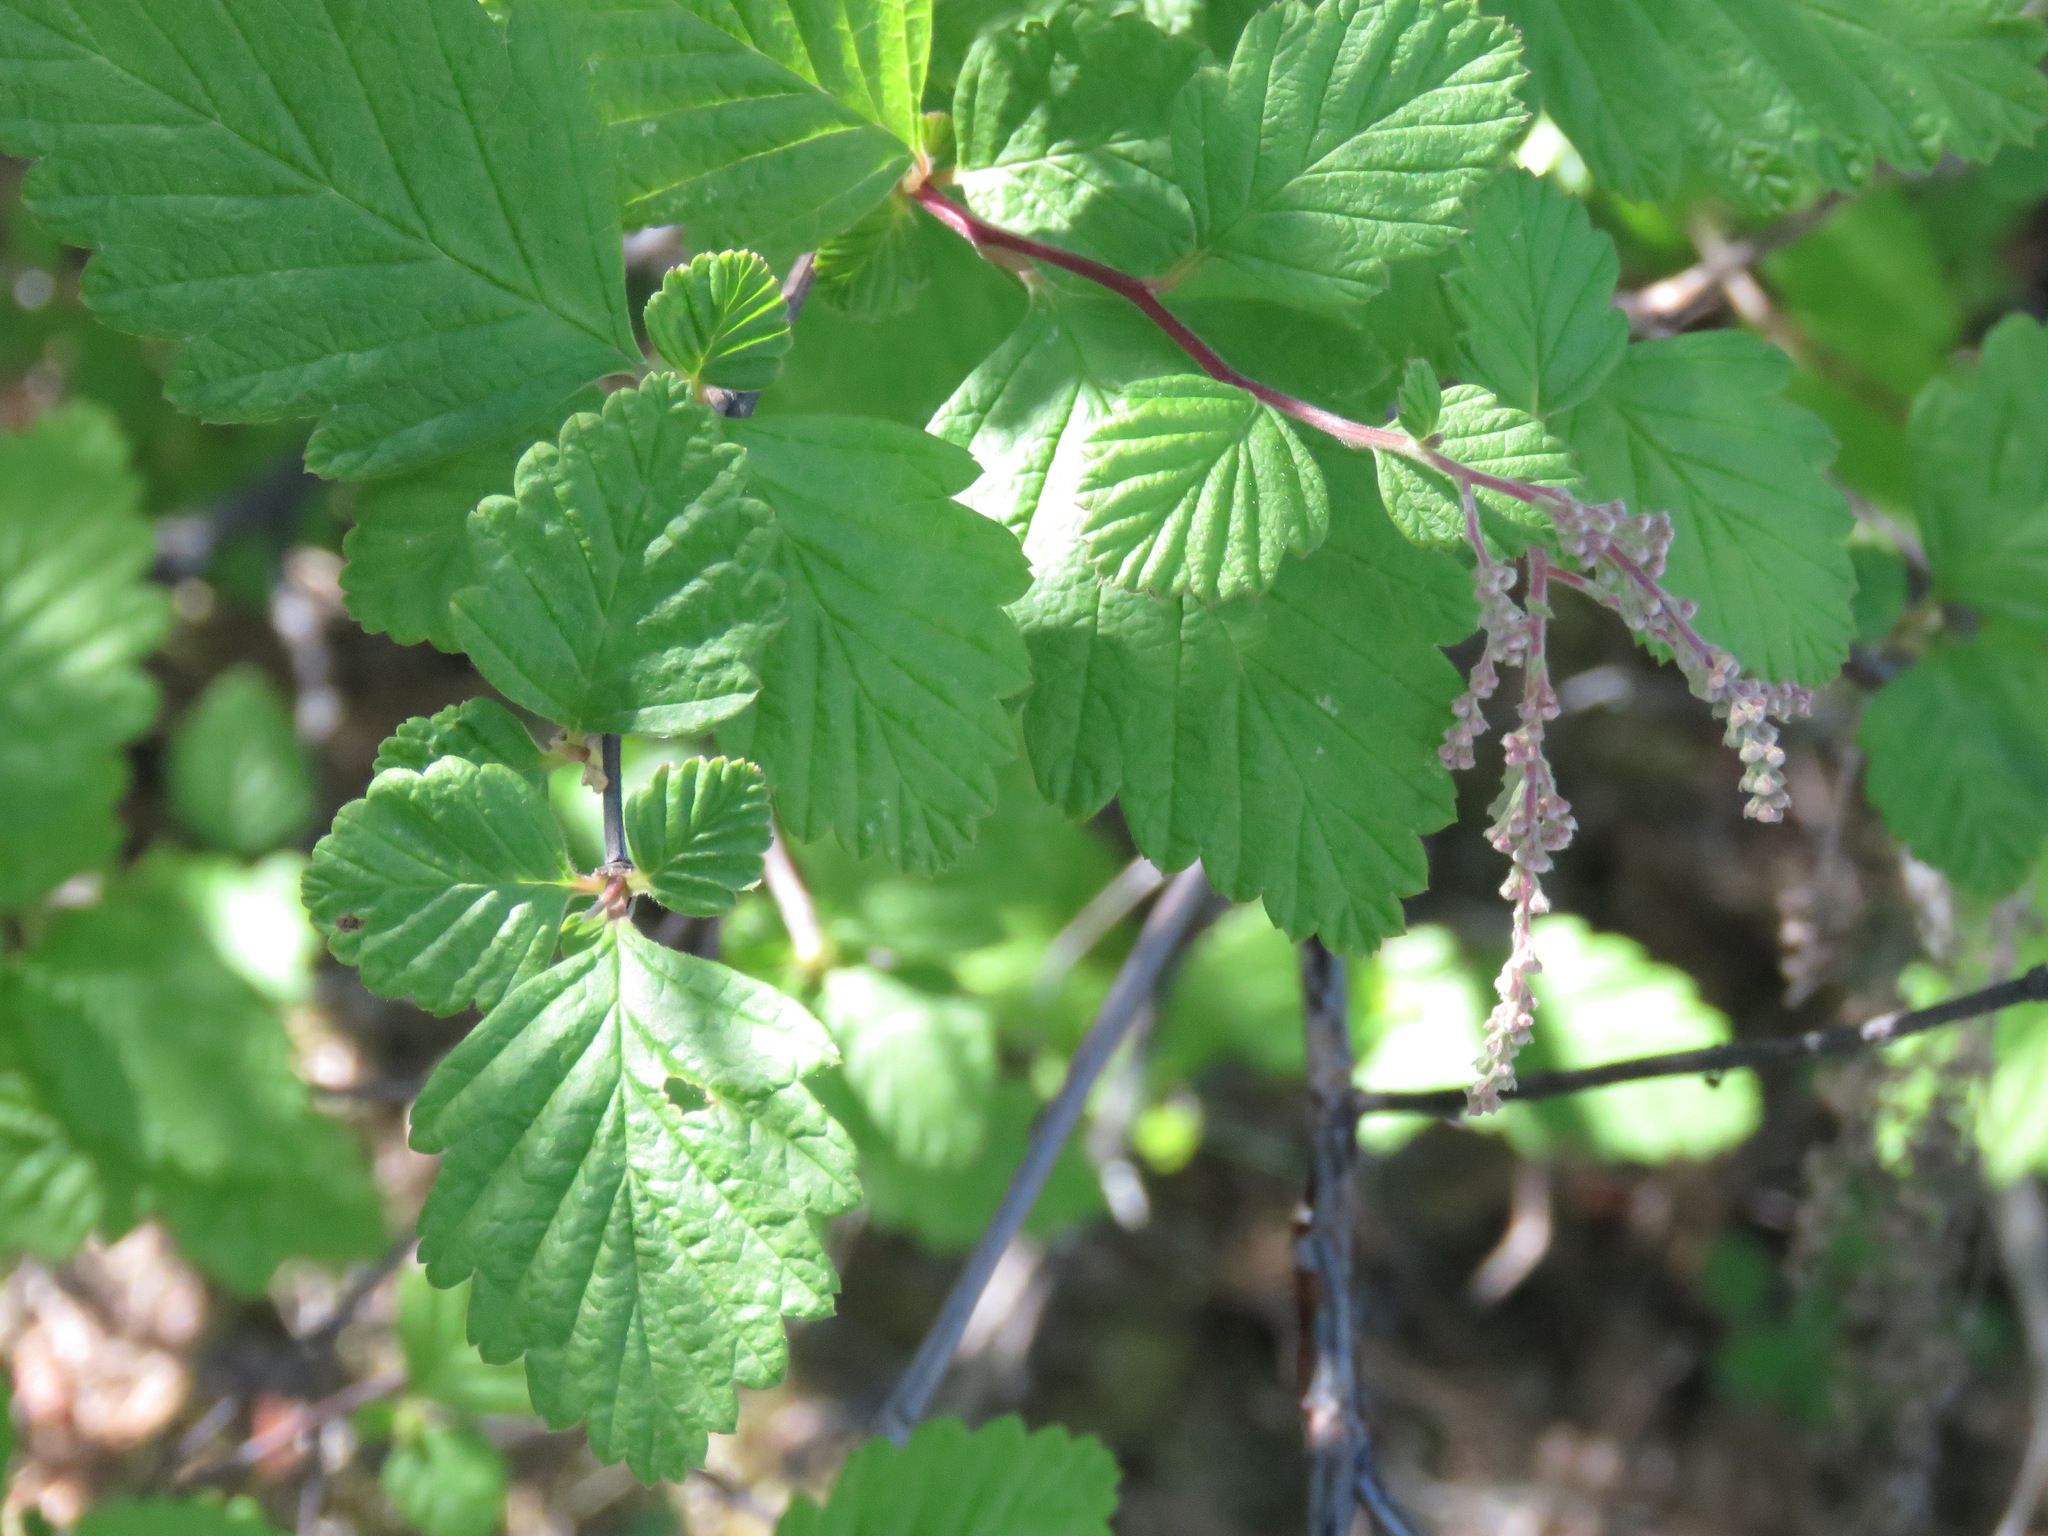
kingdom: Plantae
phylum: Tracheophyta
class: Magnoliopsida
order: Rosales
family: Rosaceae
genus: Holodiscus
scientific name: Holodiscus discolor
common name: Oceanspray
